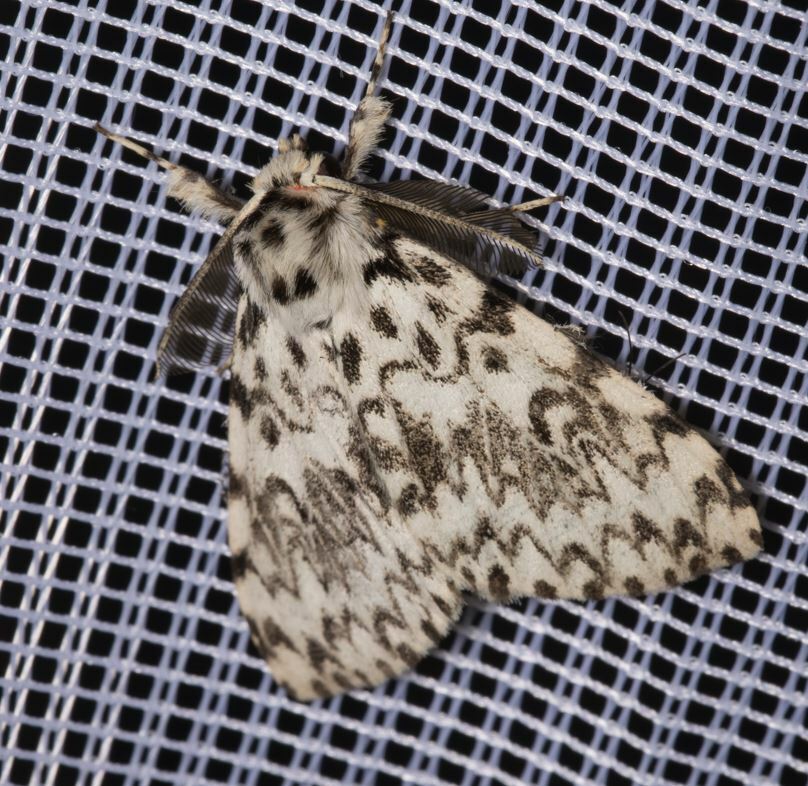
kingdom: Animalia
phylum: Arthropoda
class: Insecta
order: Lepidoptera
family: Erebidae
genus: Lymantria
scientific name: Lymantria monacha
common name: Black arches
